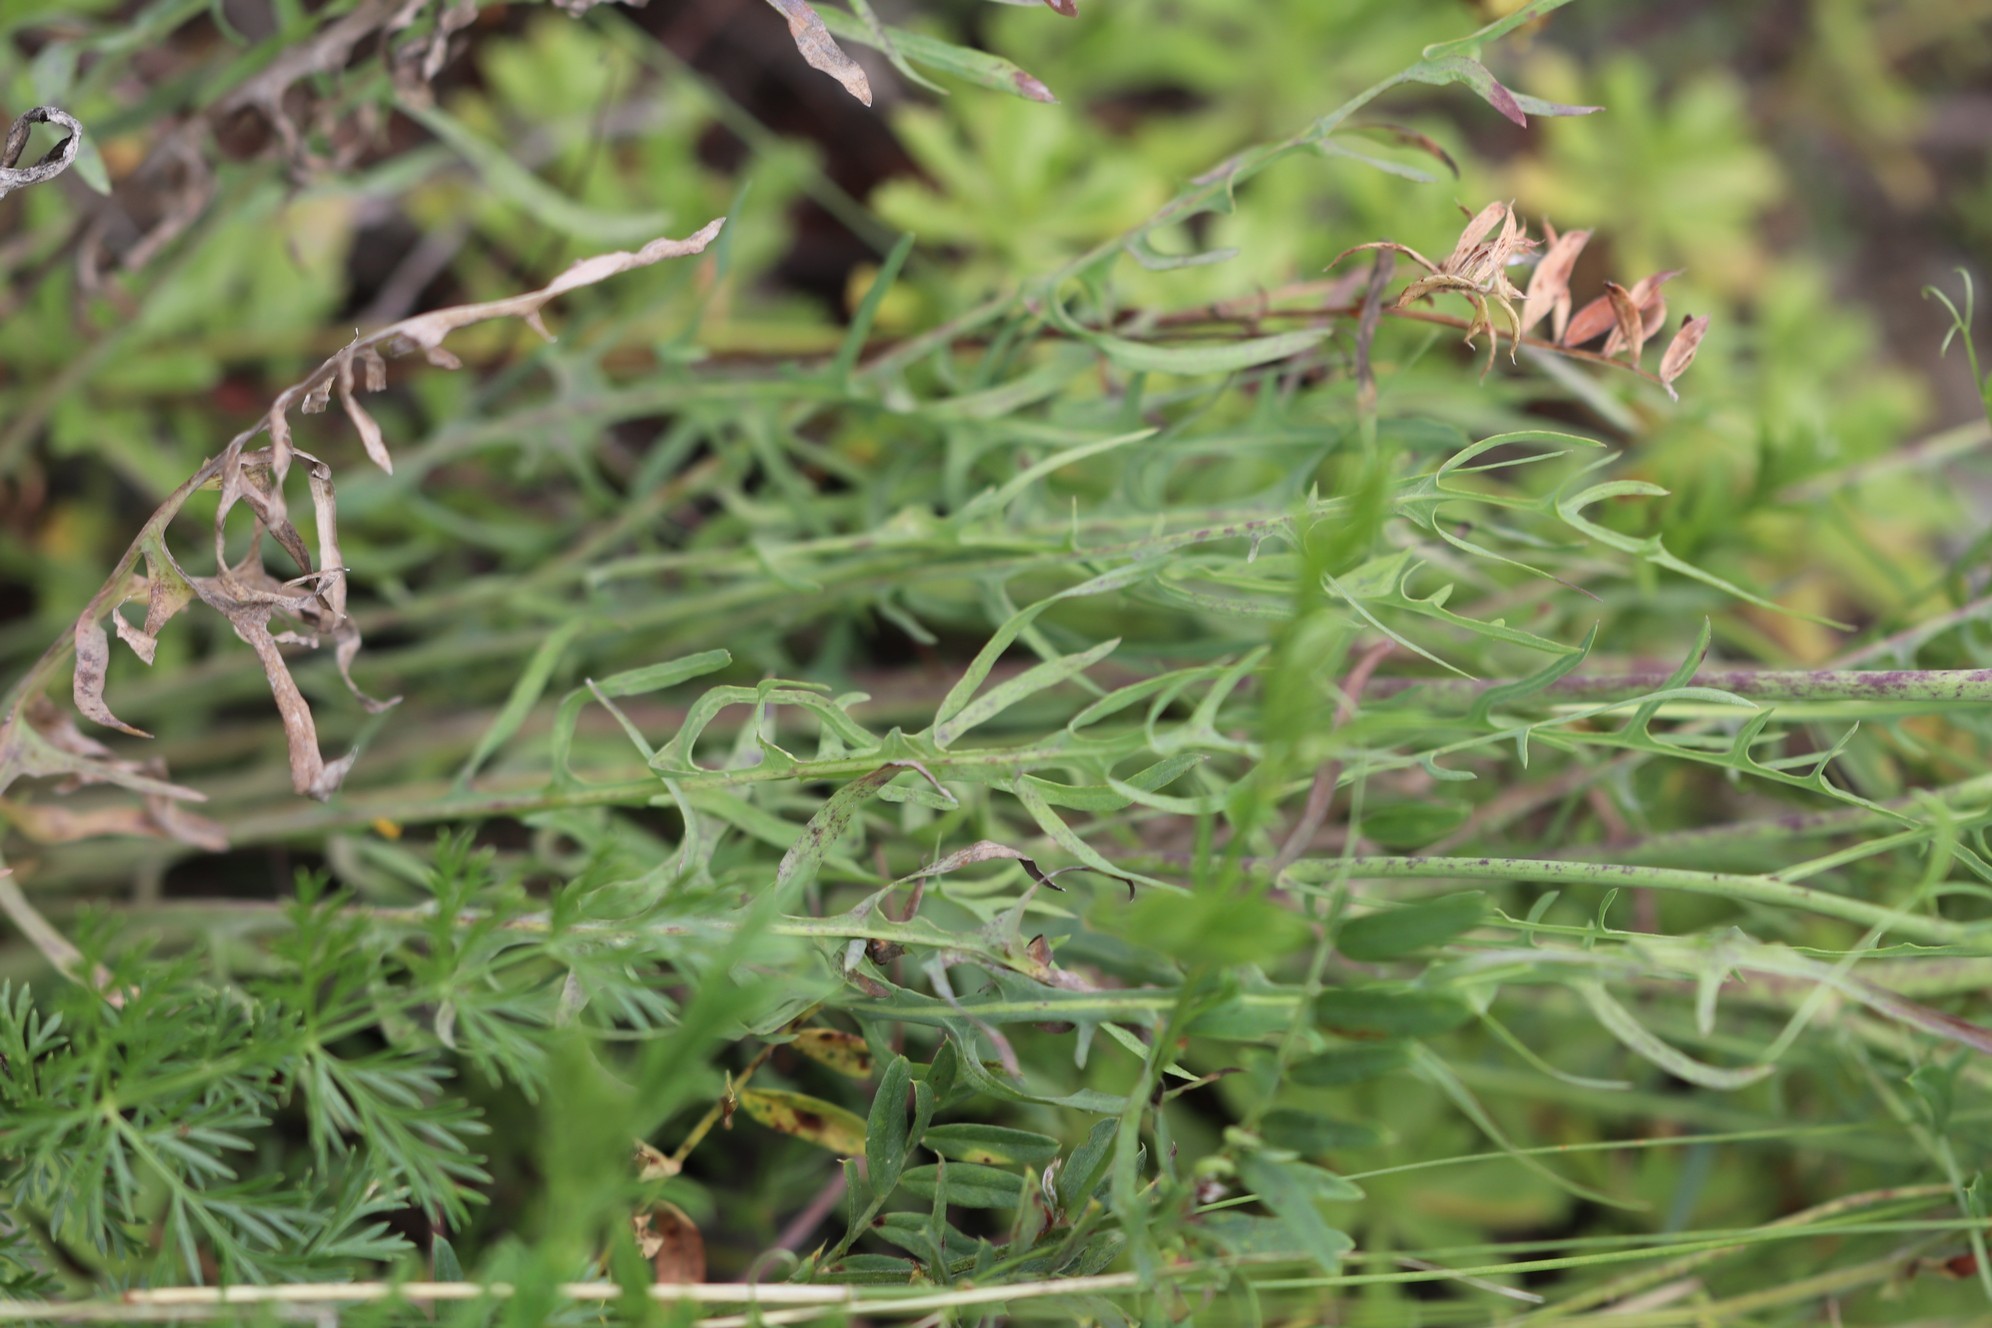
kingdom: Plantae
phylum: Tracheophyta
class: Magnoliopsida
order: Asterales
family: Asteraceae
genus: Crepidiastrum
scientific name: Crepidiastrum tenuifolium
